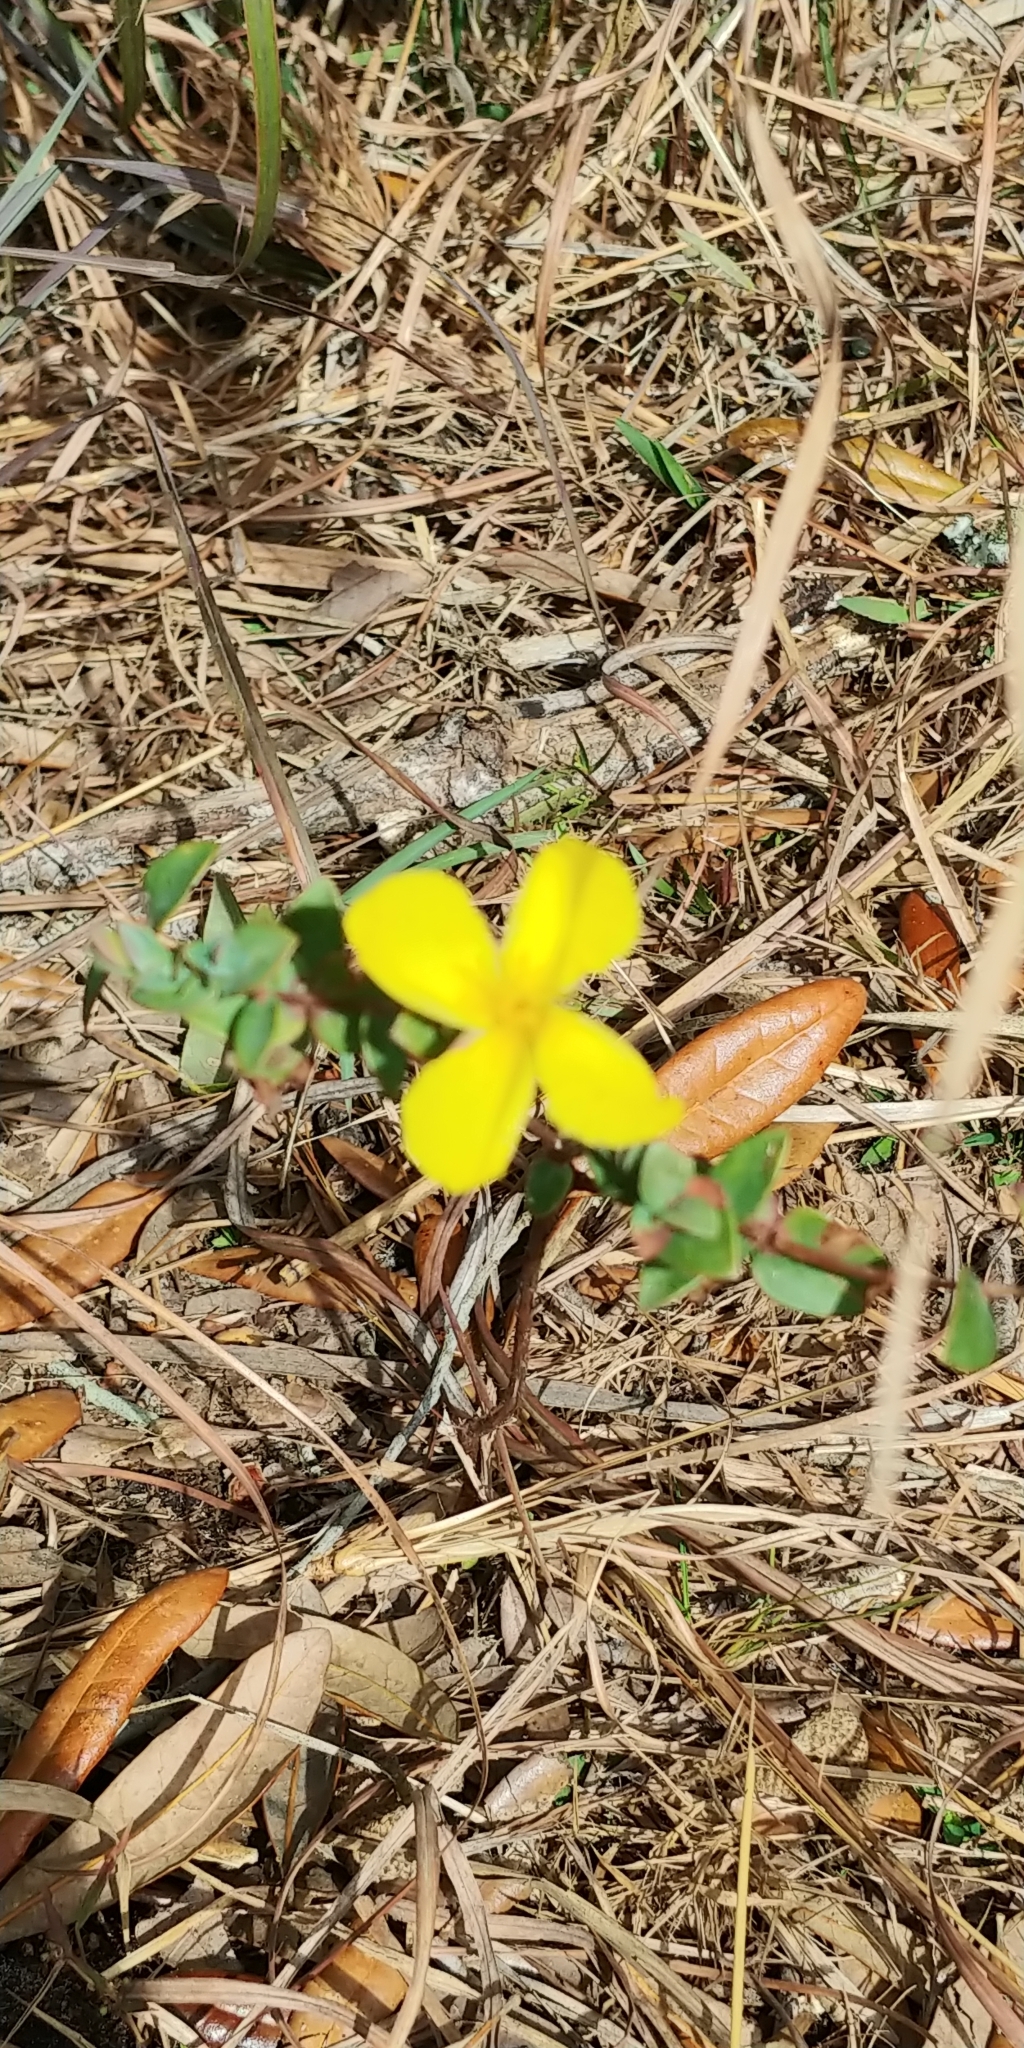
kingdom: Plantae
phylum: Tracheophyta
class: Magnoliopsida
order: Malpighiales
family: Hypericaceae
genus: Hypericum
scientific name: Hypericum tetrapetalum
